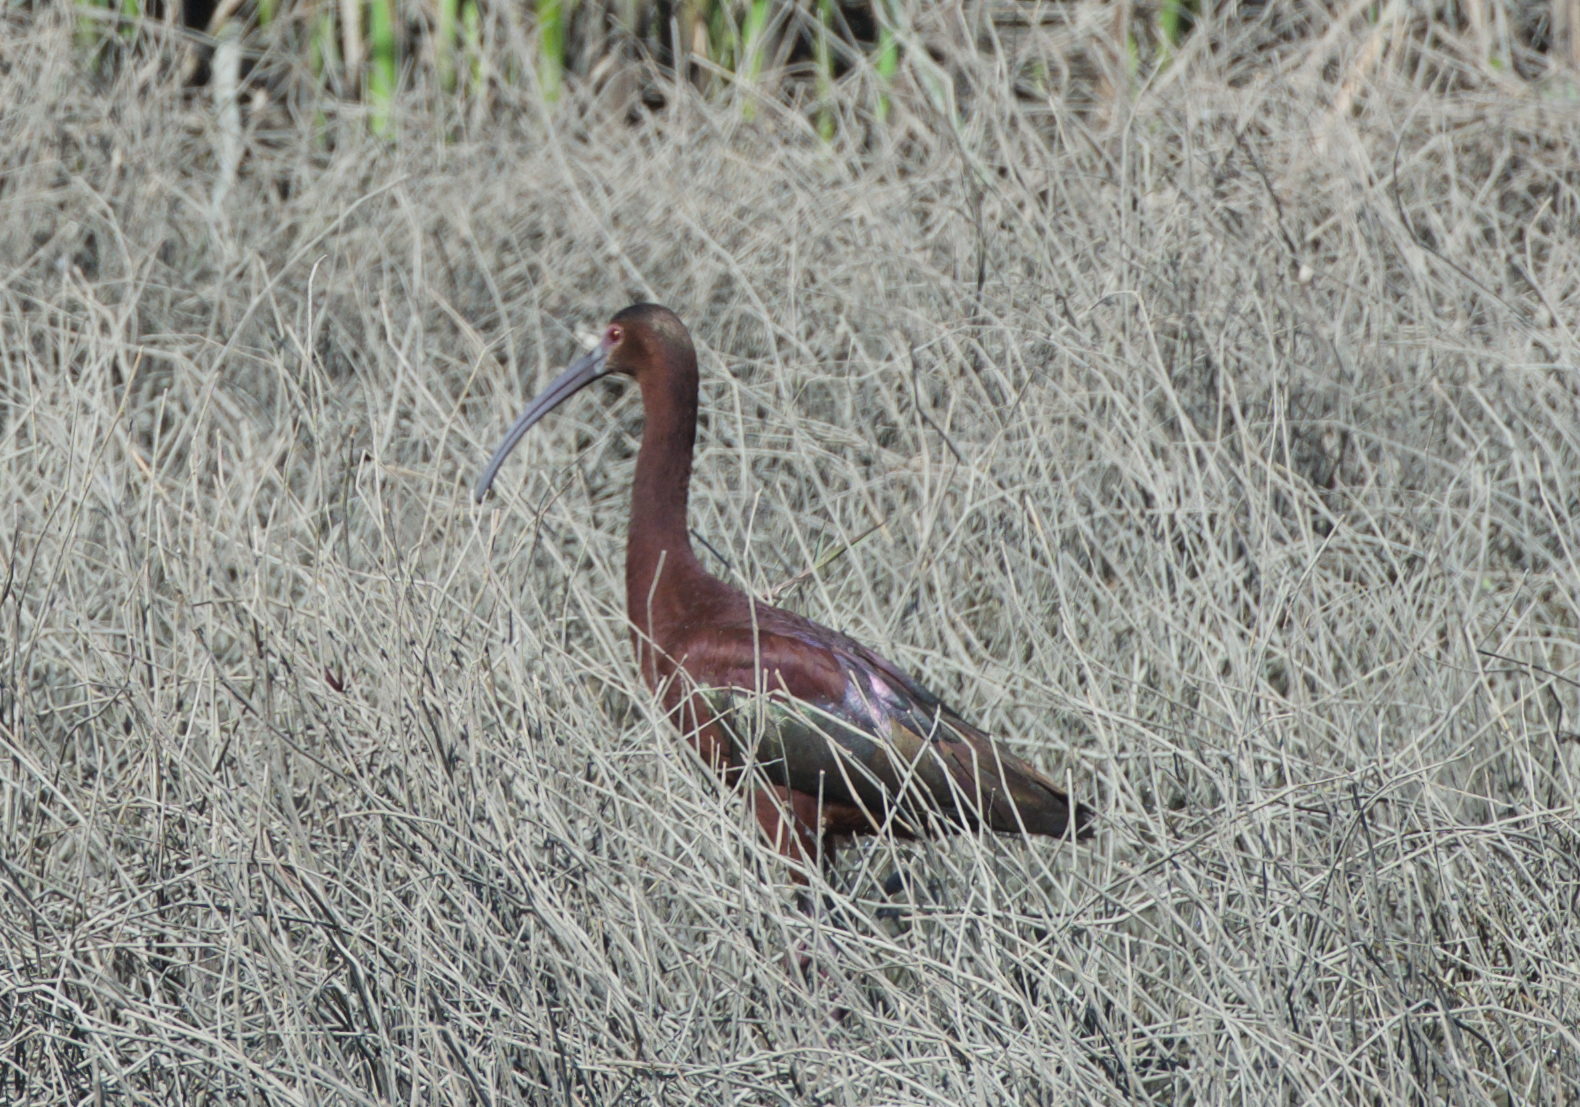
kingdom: Animalia
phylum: Chordata
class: Aves
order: Pelecaniformes
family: Threskiornithidae
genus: Plegadis
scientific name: Plegadis chihi
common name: White-faced ibis
